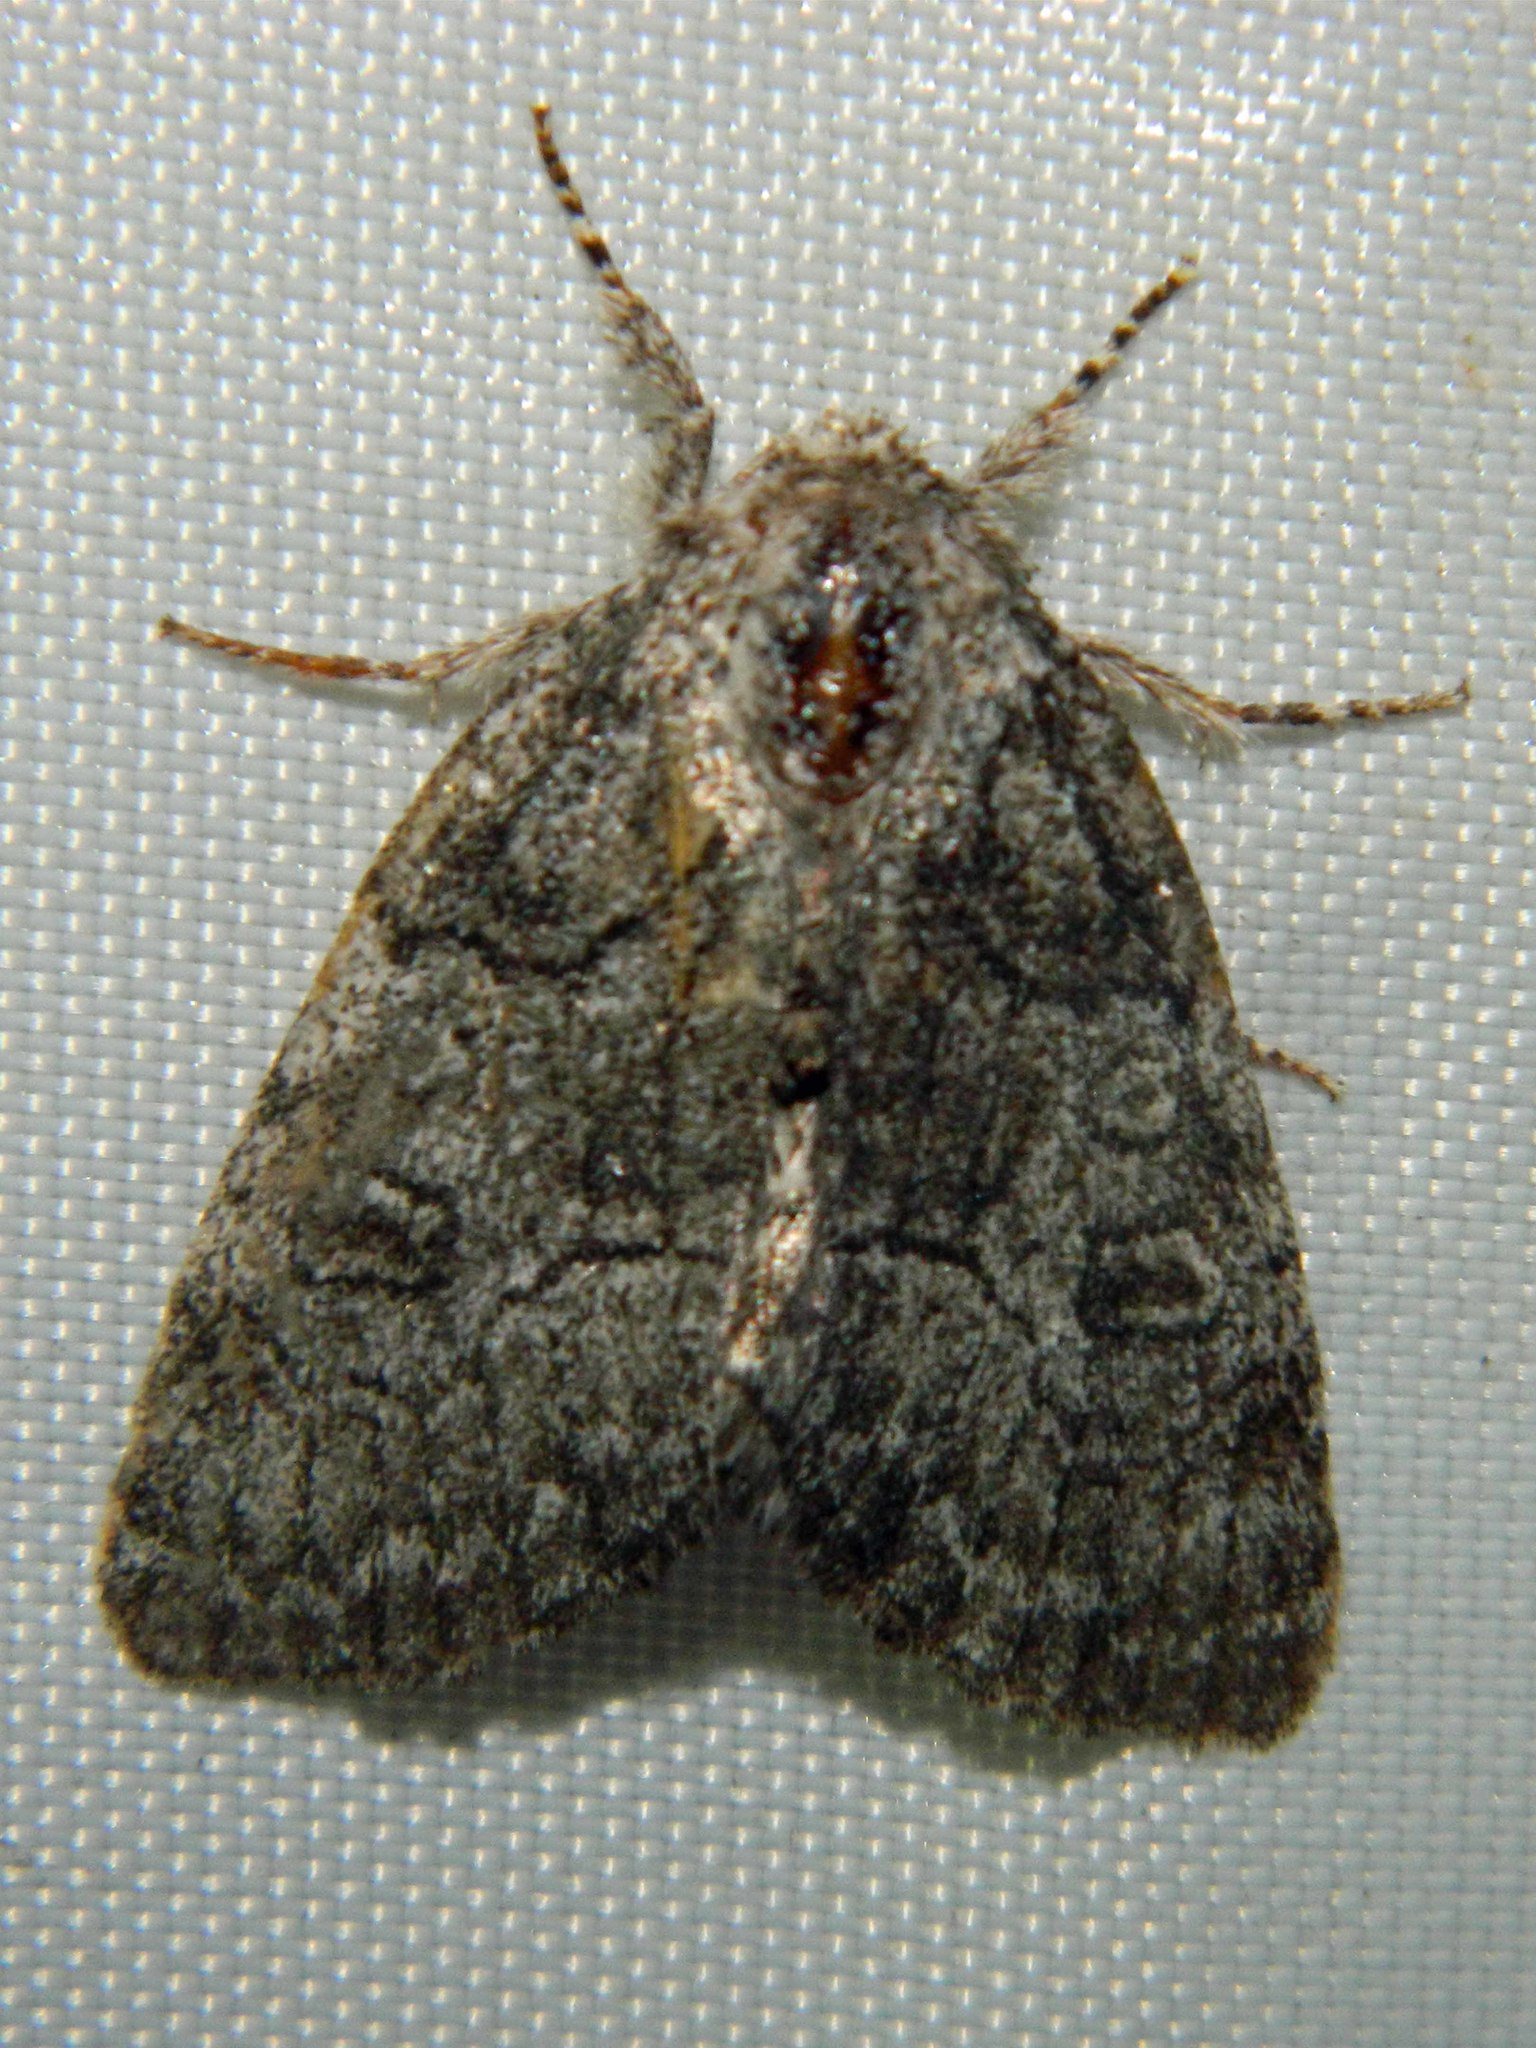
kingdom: Animalia
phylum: Arthropoda
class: Insecta
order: Lepidoptera
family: Noctuidae
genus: Raphia
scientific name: Raphia frater
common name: Brother
